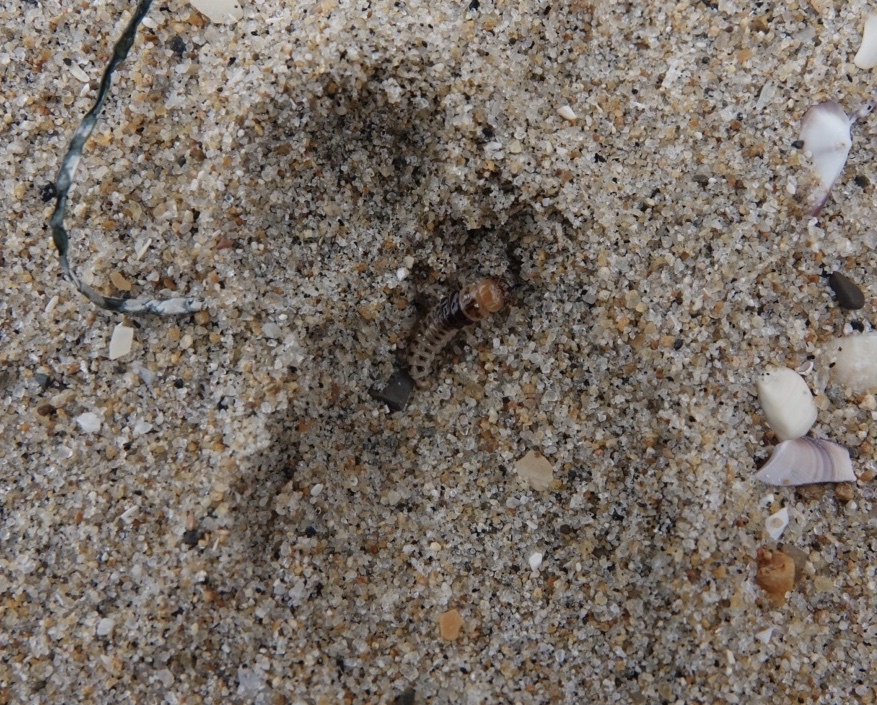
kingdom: Animalia
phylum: Arthropoda
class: Insecta
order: Coleoptera
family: Staphylinidae
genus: Thinopinus
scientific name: Thinopinus pictus
